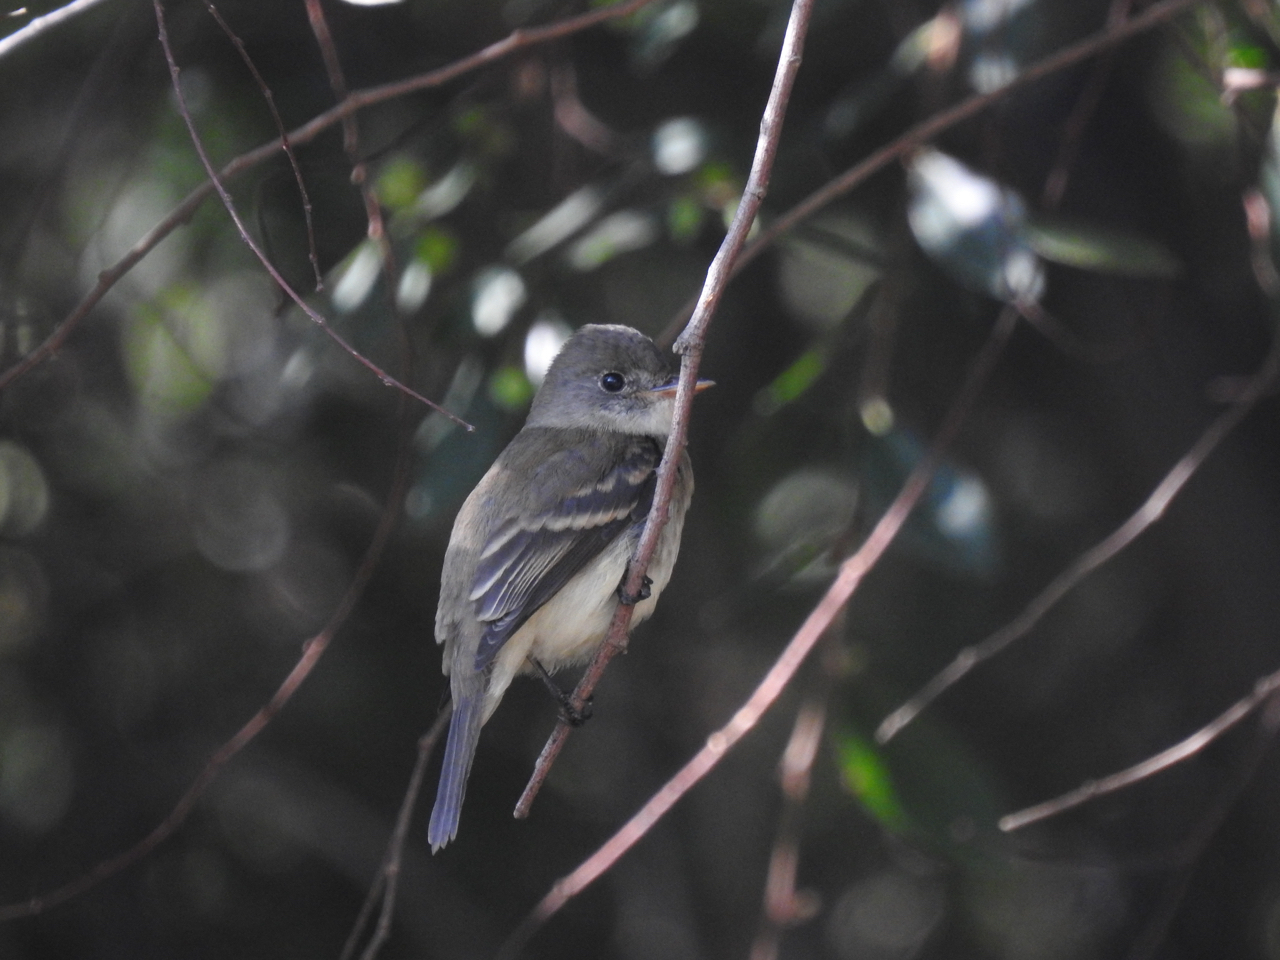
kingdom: Animalia
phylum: Chordata
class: Aves
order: Passeriformes
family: Tyrannidae
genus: Empidonax
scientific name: Empidonax traillii
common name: Willow flycatcher
